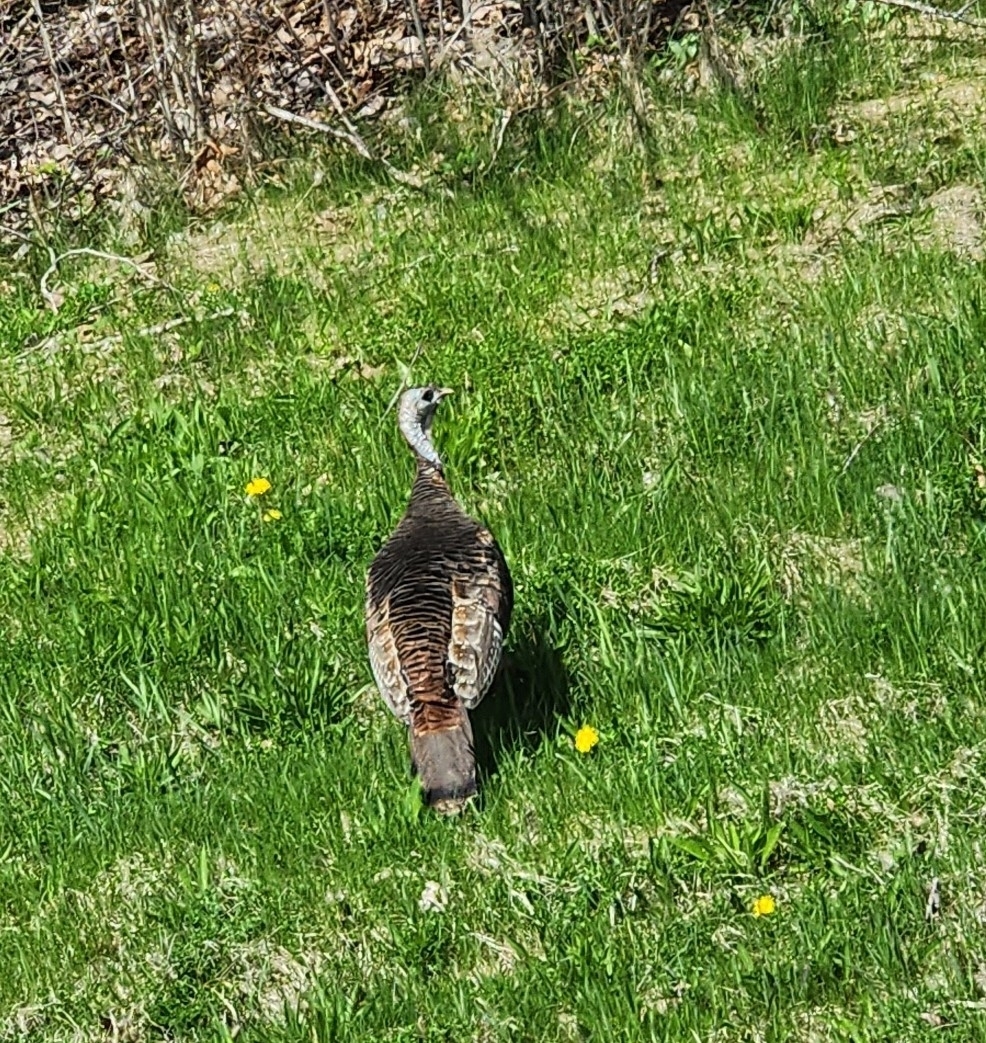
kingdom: Animalia
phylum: Chordata
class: Aves
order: Galliformes
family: Phasianidae
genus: Meleagris
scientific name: Meleagris gallopavo
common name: Wild turkey
